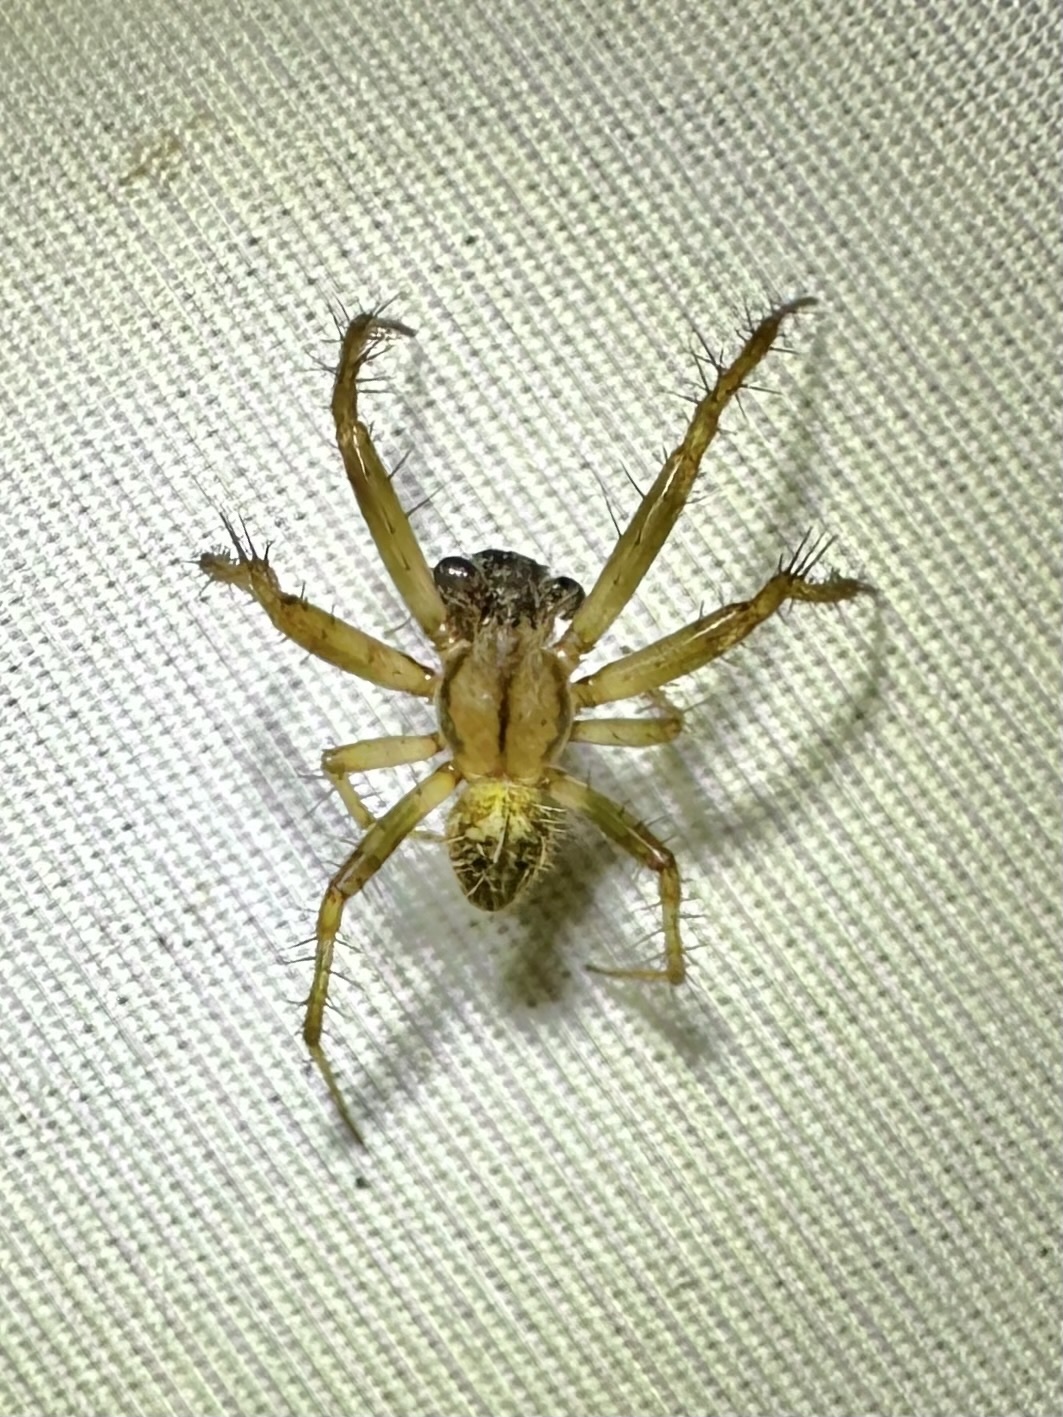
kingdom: Animalia
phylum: Arthropoda
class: Arachnida
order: Araneae
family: Araneidae
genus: Neoscona
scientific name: Neoscona arabesca
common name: Orb weavers
